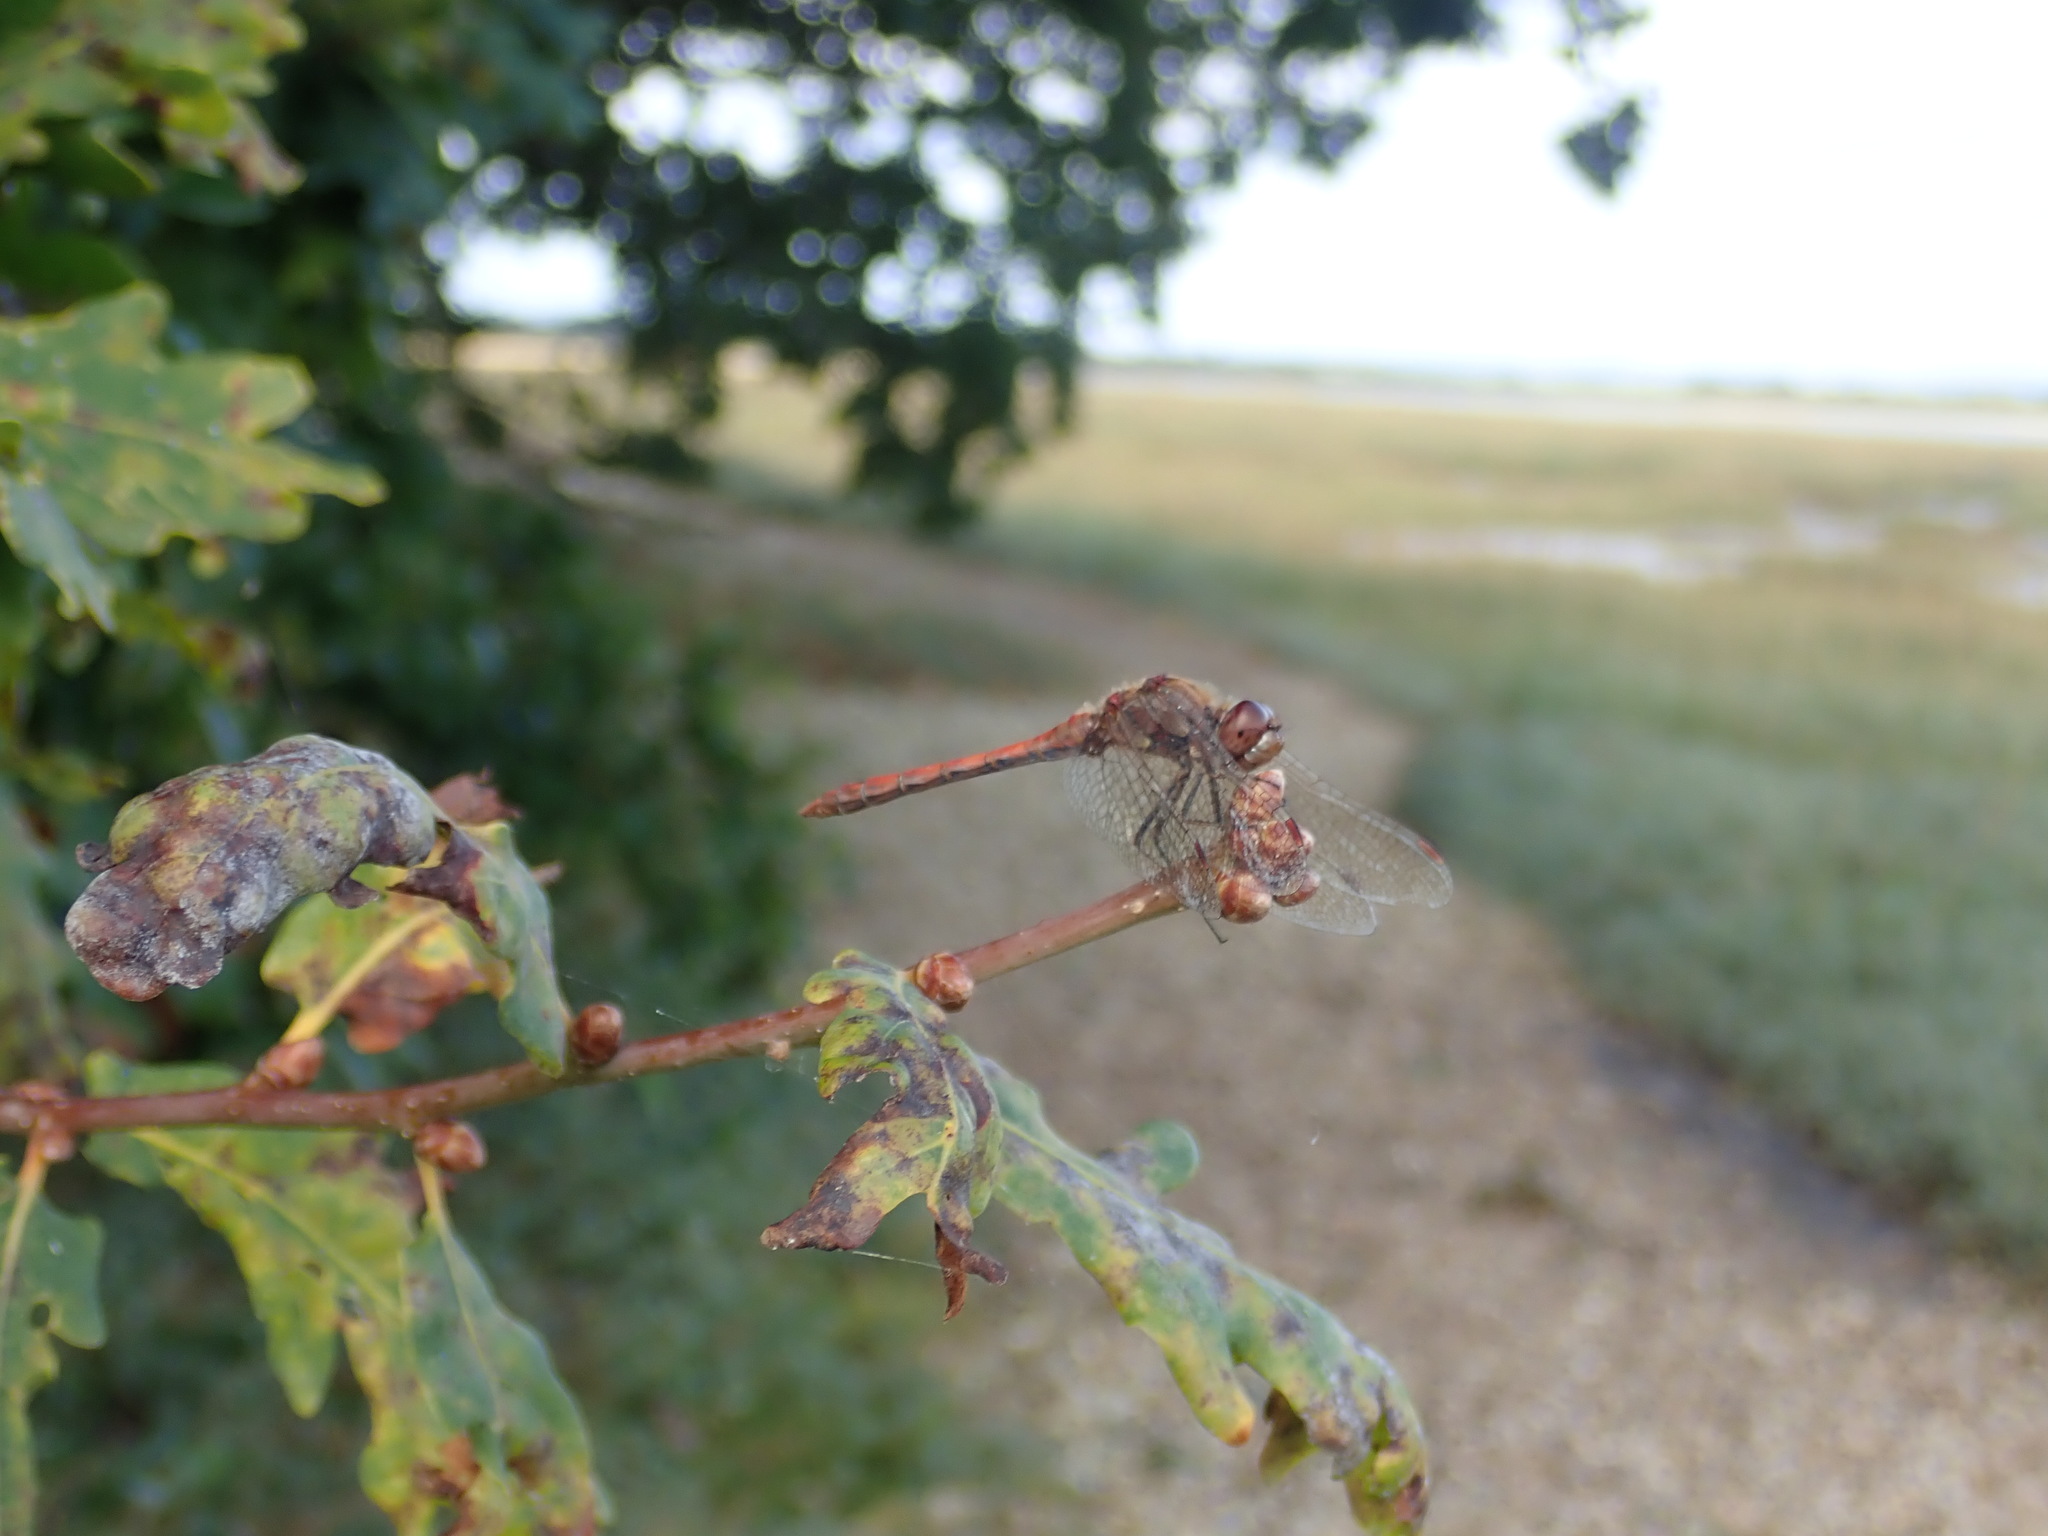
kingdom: Animalia
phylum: Arthropoda
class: Insecta
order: Odonata
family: Libellulidae
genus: Sympetrum
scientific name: Sympetrum striolatum
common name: Common darter
